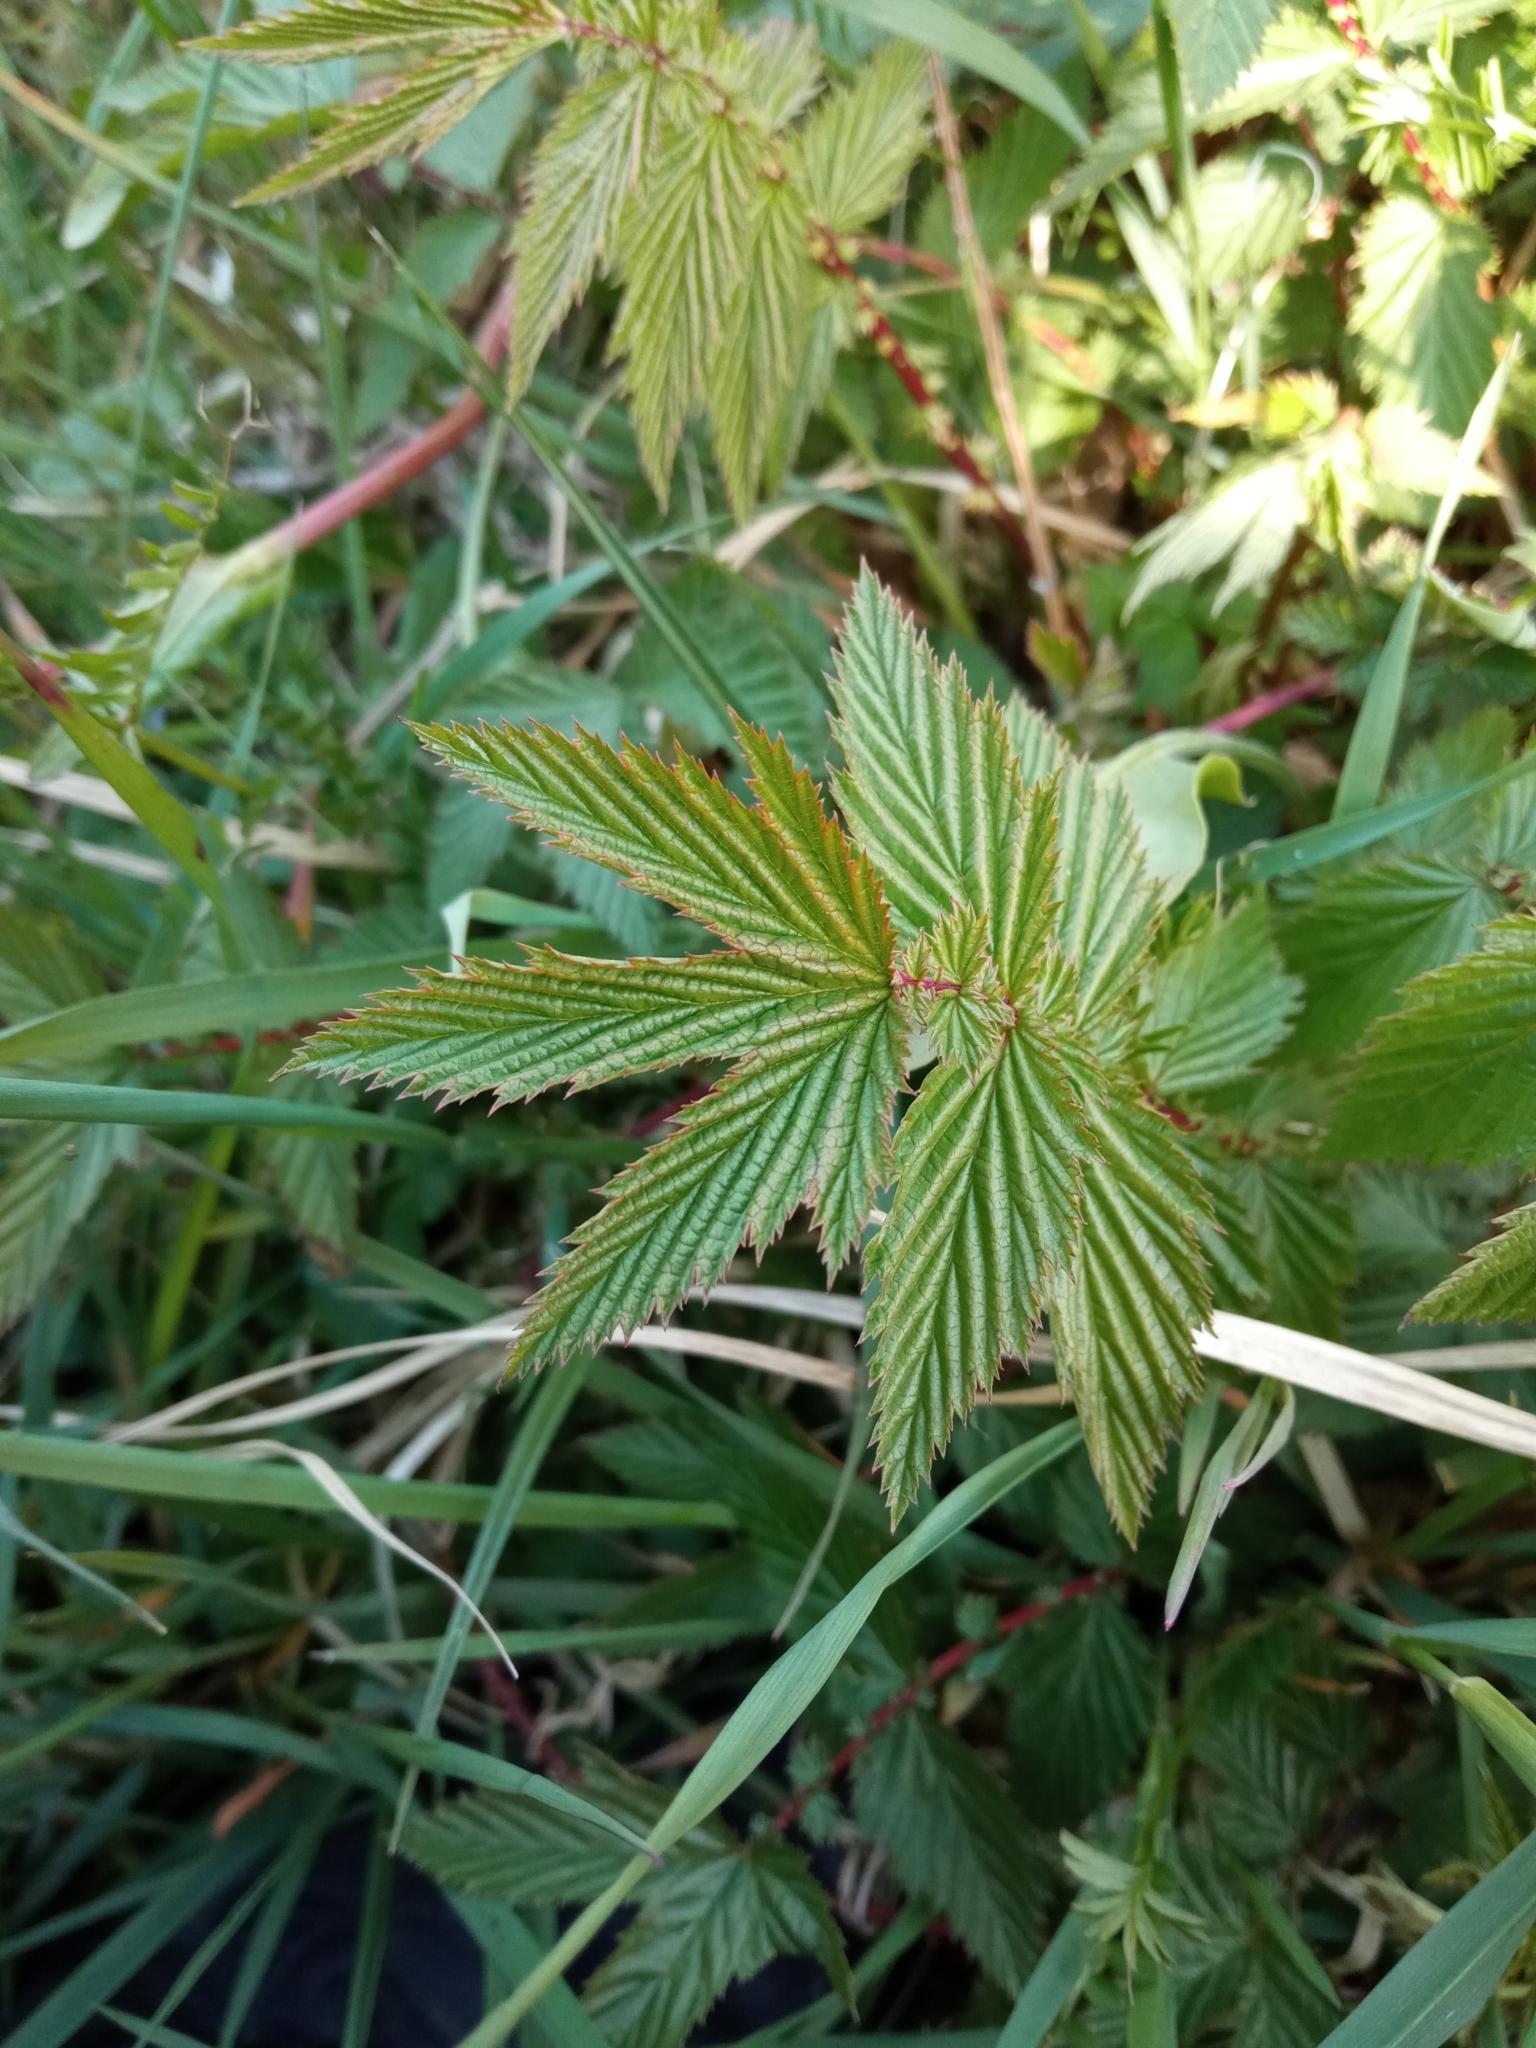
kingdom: Plantae
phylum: Tracheophyta
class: Magnoliopsida
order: Rosales
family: Rosaceae
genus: Filipendula
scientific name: Filipendula ulmaria
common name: Meadowsweet
